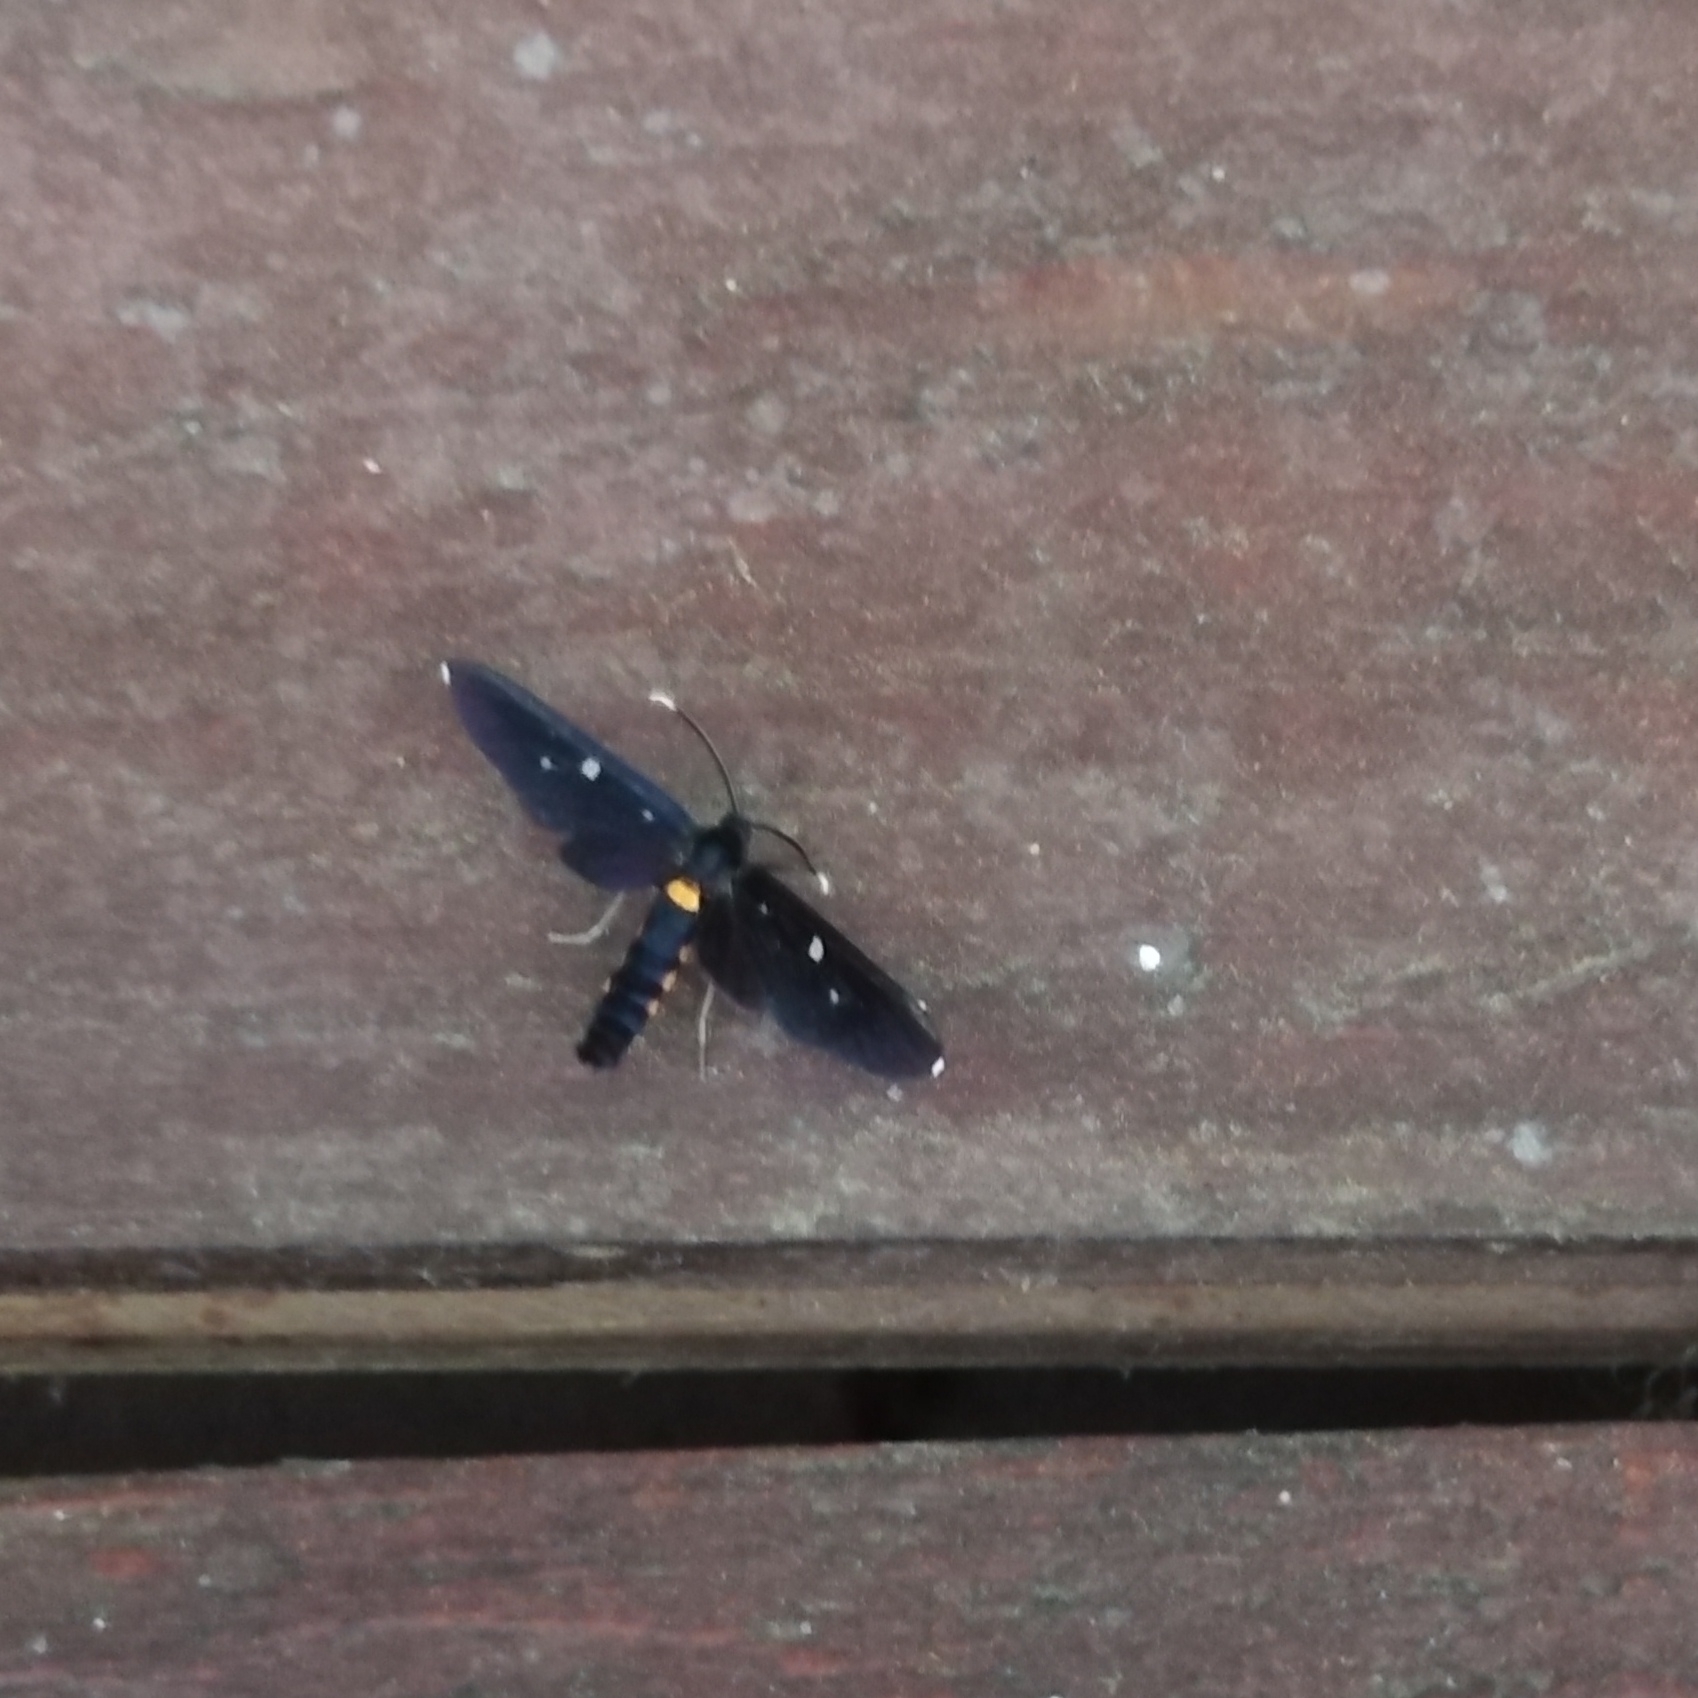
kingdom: Animalia
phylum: Arthropoda
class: Insecta
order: Lepidoptera
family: Erebidae
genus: Amata
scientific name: Amata simplex
